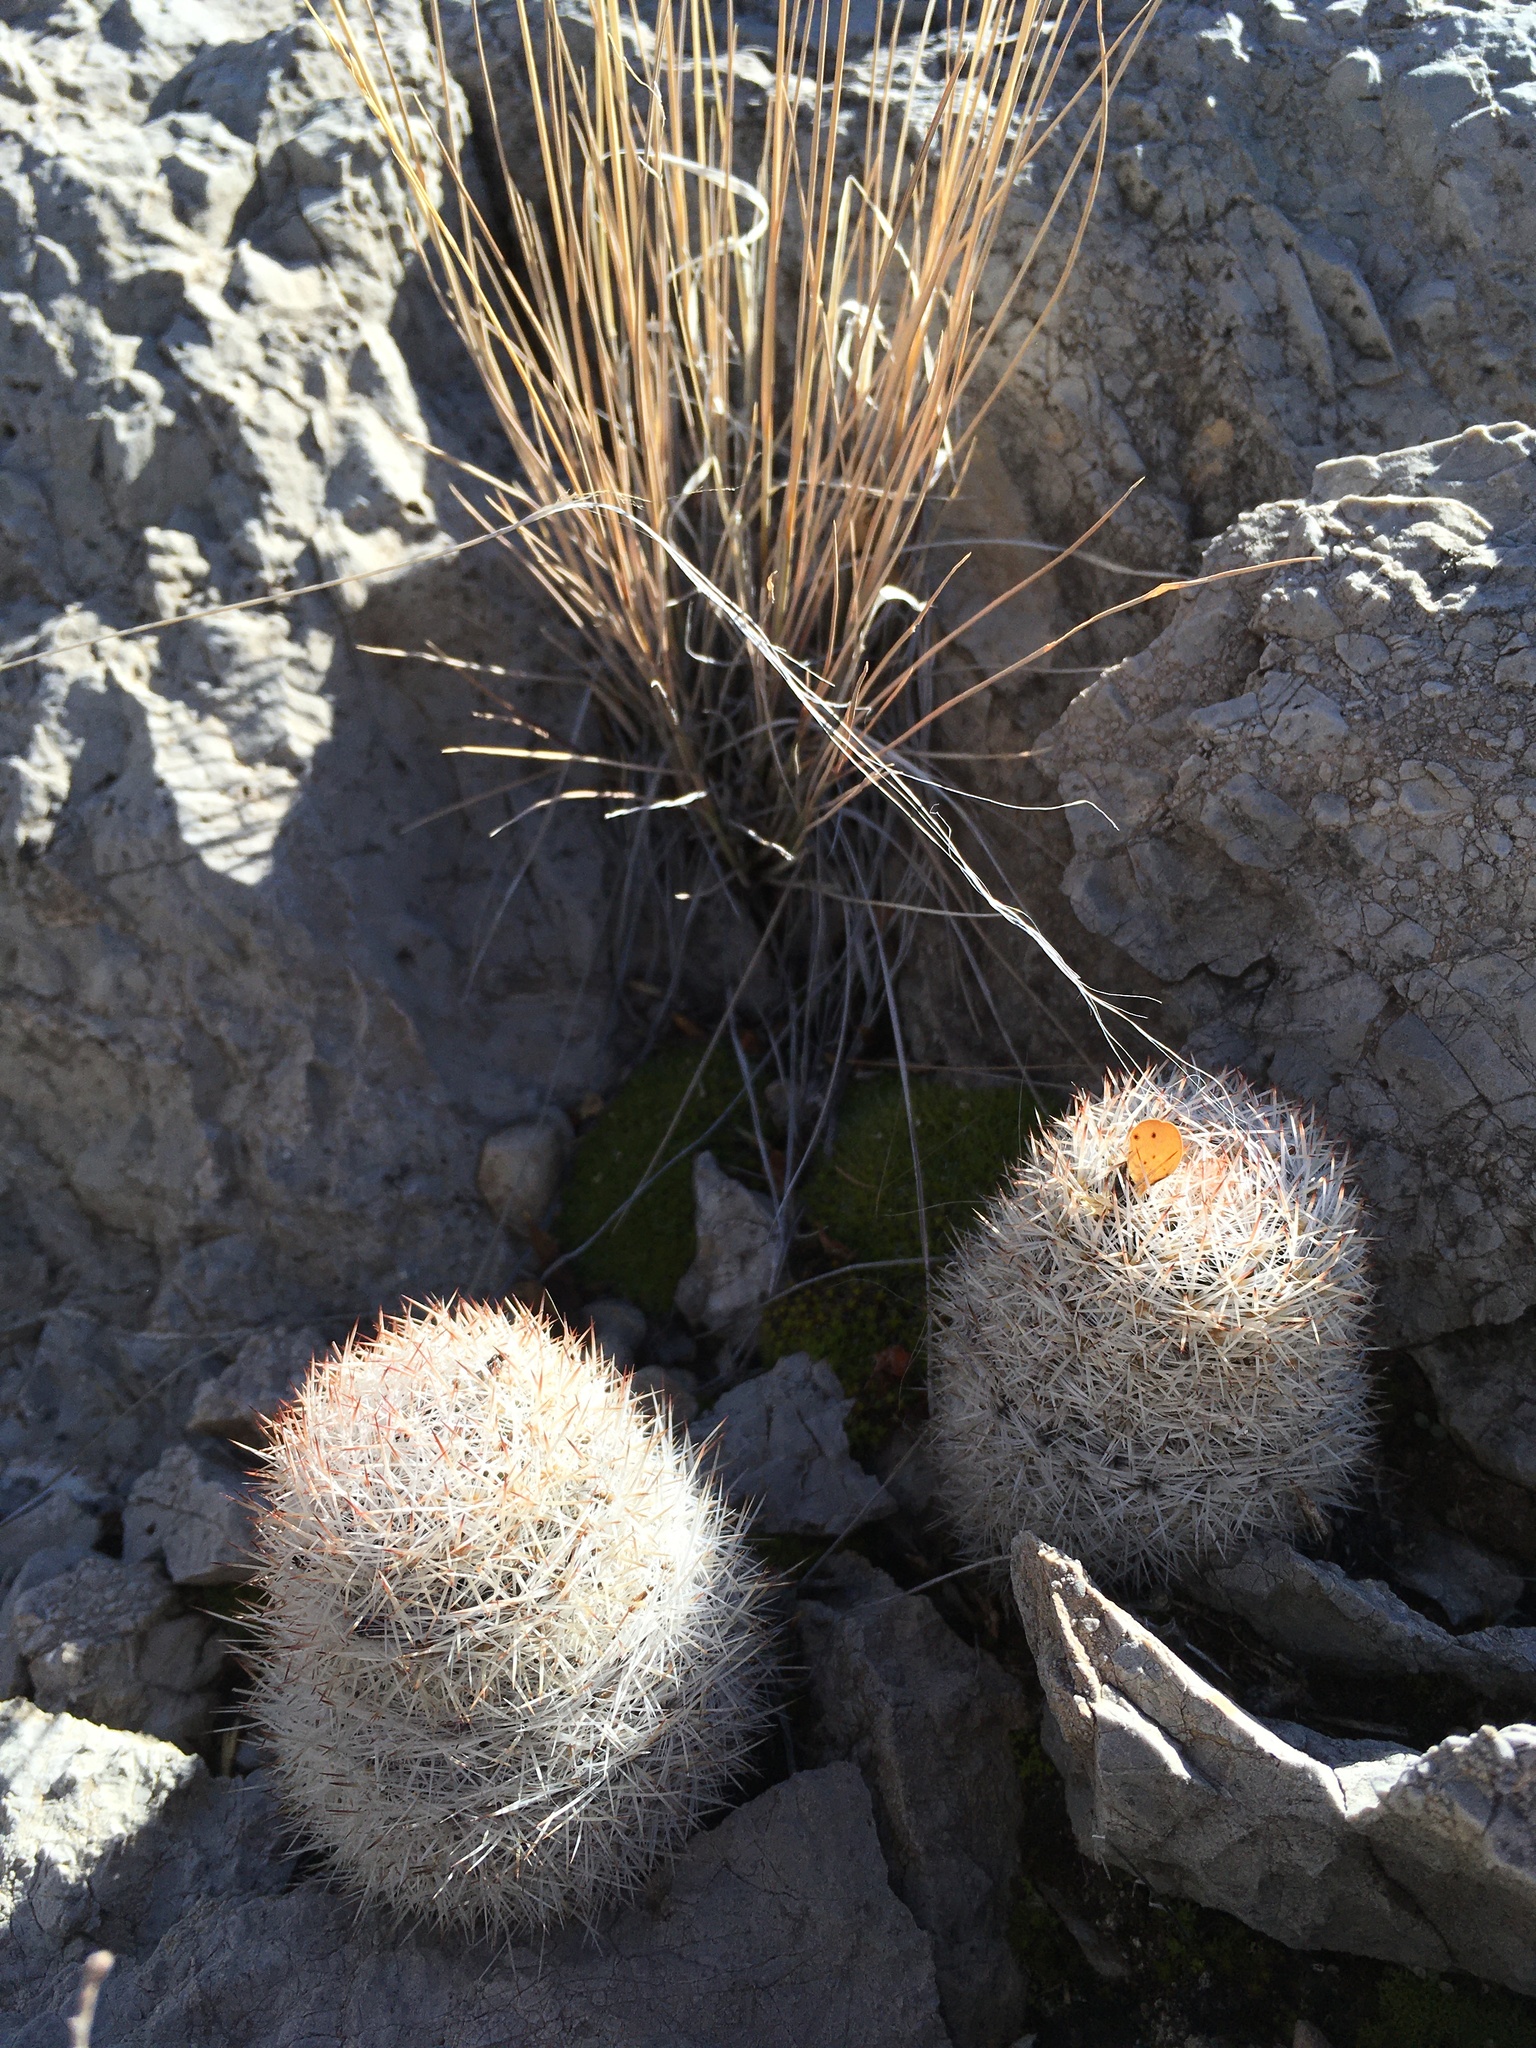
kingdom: Plantae
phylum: Tracheophyta
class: Magnoliopsida
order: Caryophyllales
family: Cactaceae
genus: Pelecyphora
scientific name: Pelecyphora sneedii
